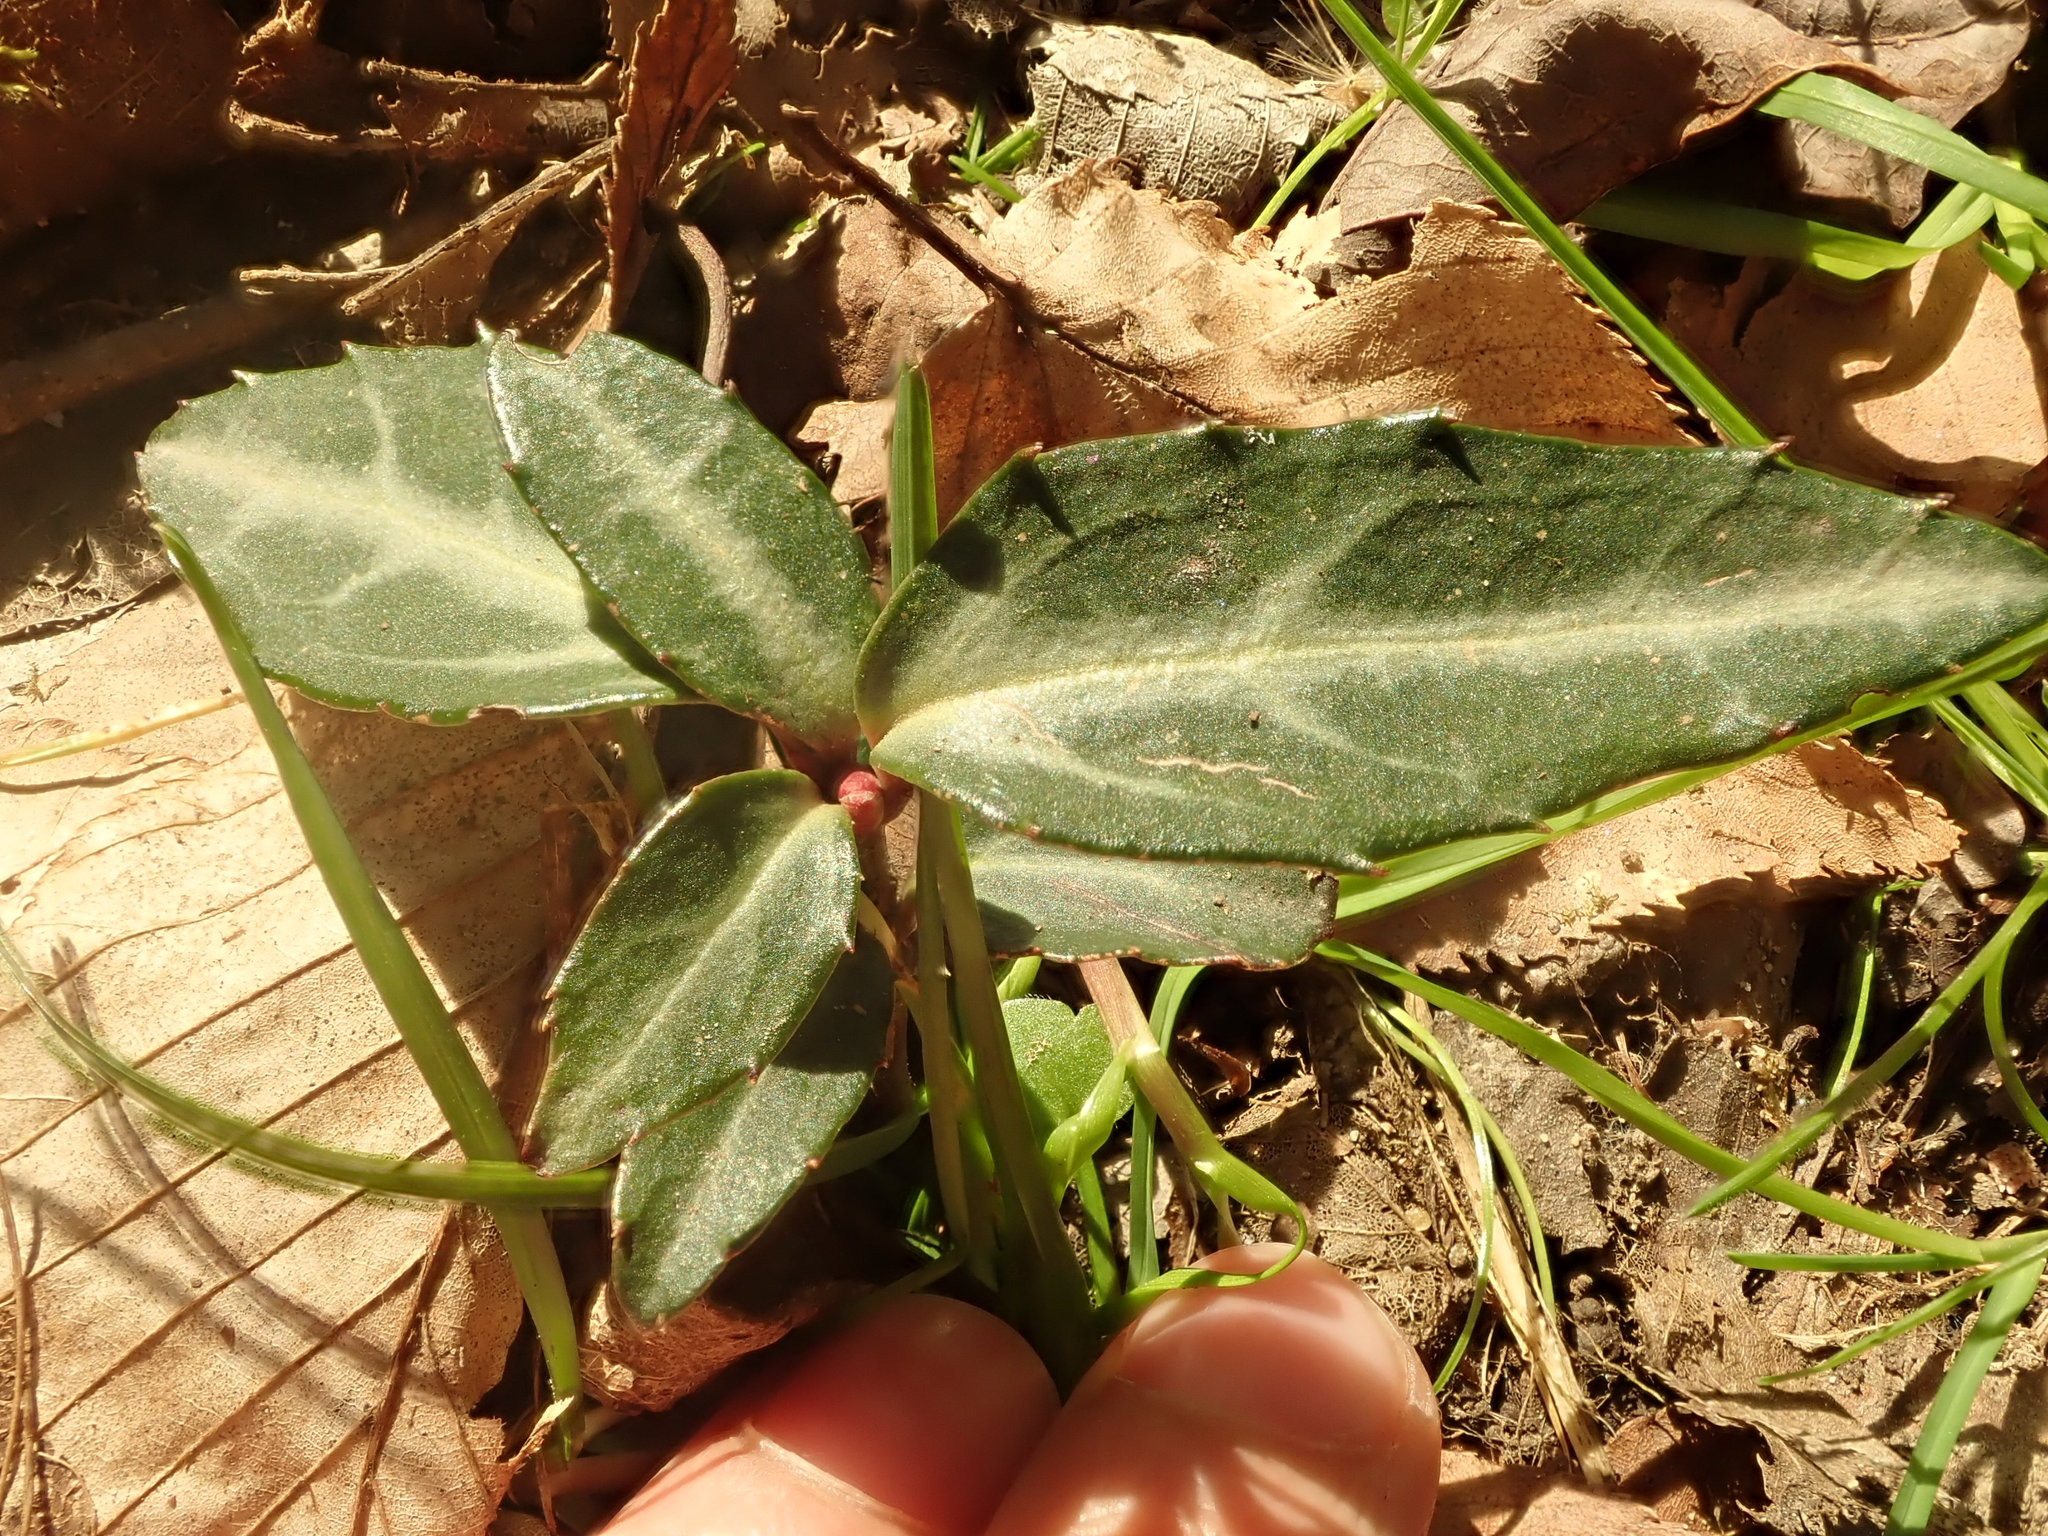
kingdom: Plantae
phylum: Tracheophyta
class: Magnoliopsida
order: Ericales
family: Ericaceae
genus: Chimaphila
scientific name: Chimaphila maculata
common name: Spotted pipsissewa
